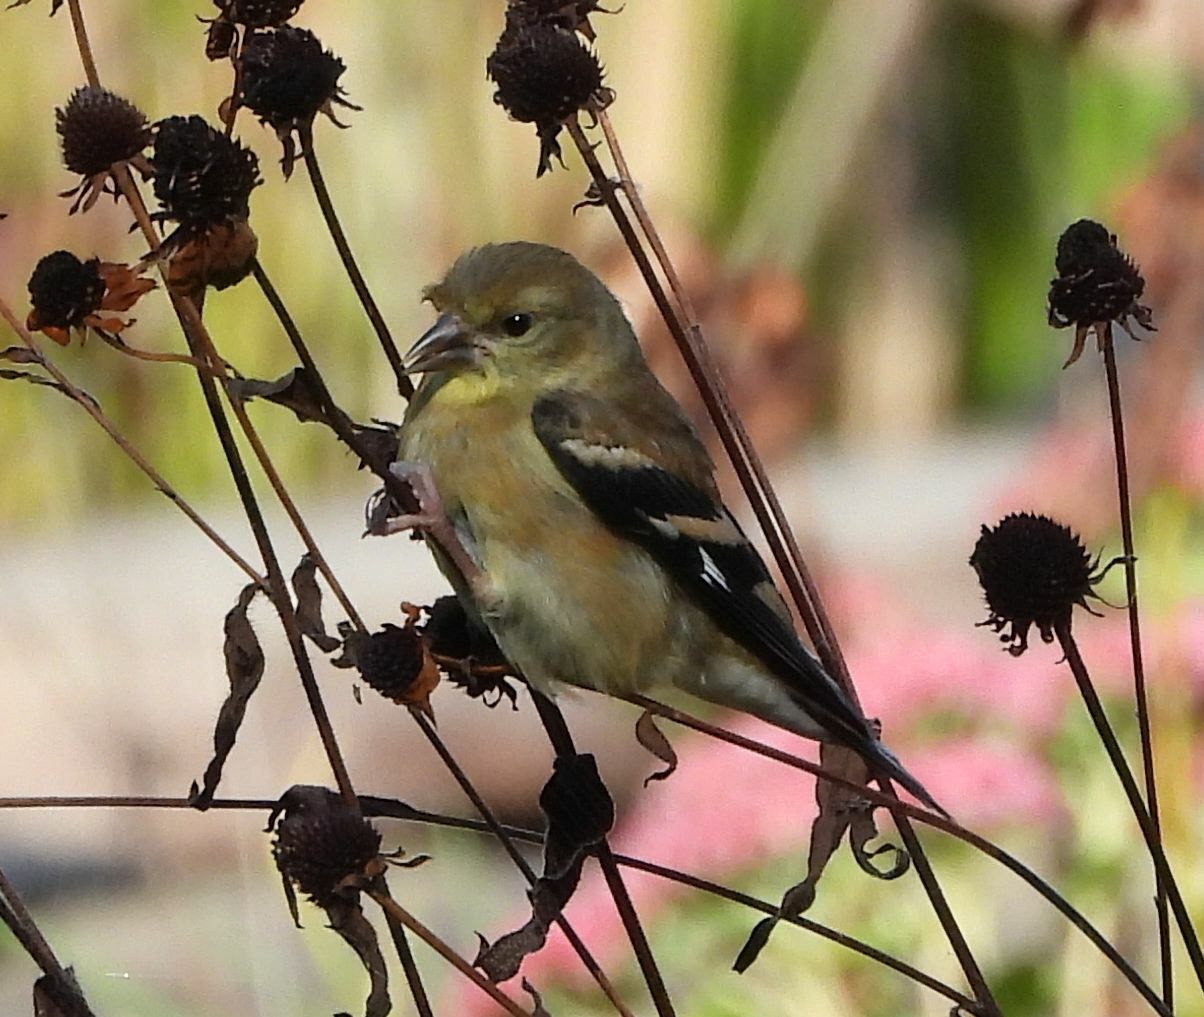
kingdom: Animalia
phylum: Chordata
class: Aves
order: Passeriformes
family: Fringillidae
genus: Spinus
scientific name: Spinus tristis
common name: American goldfinch
